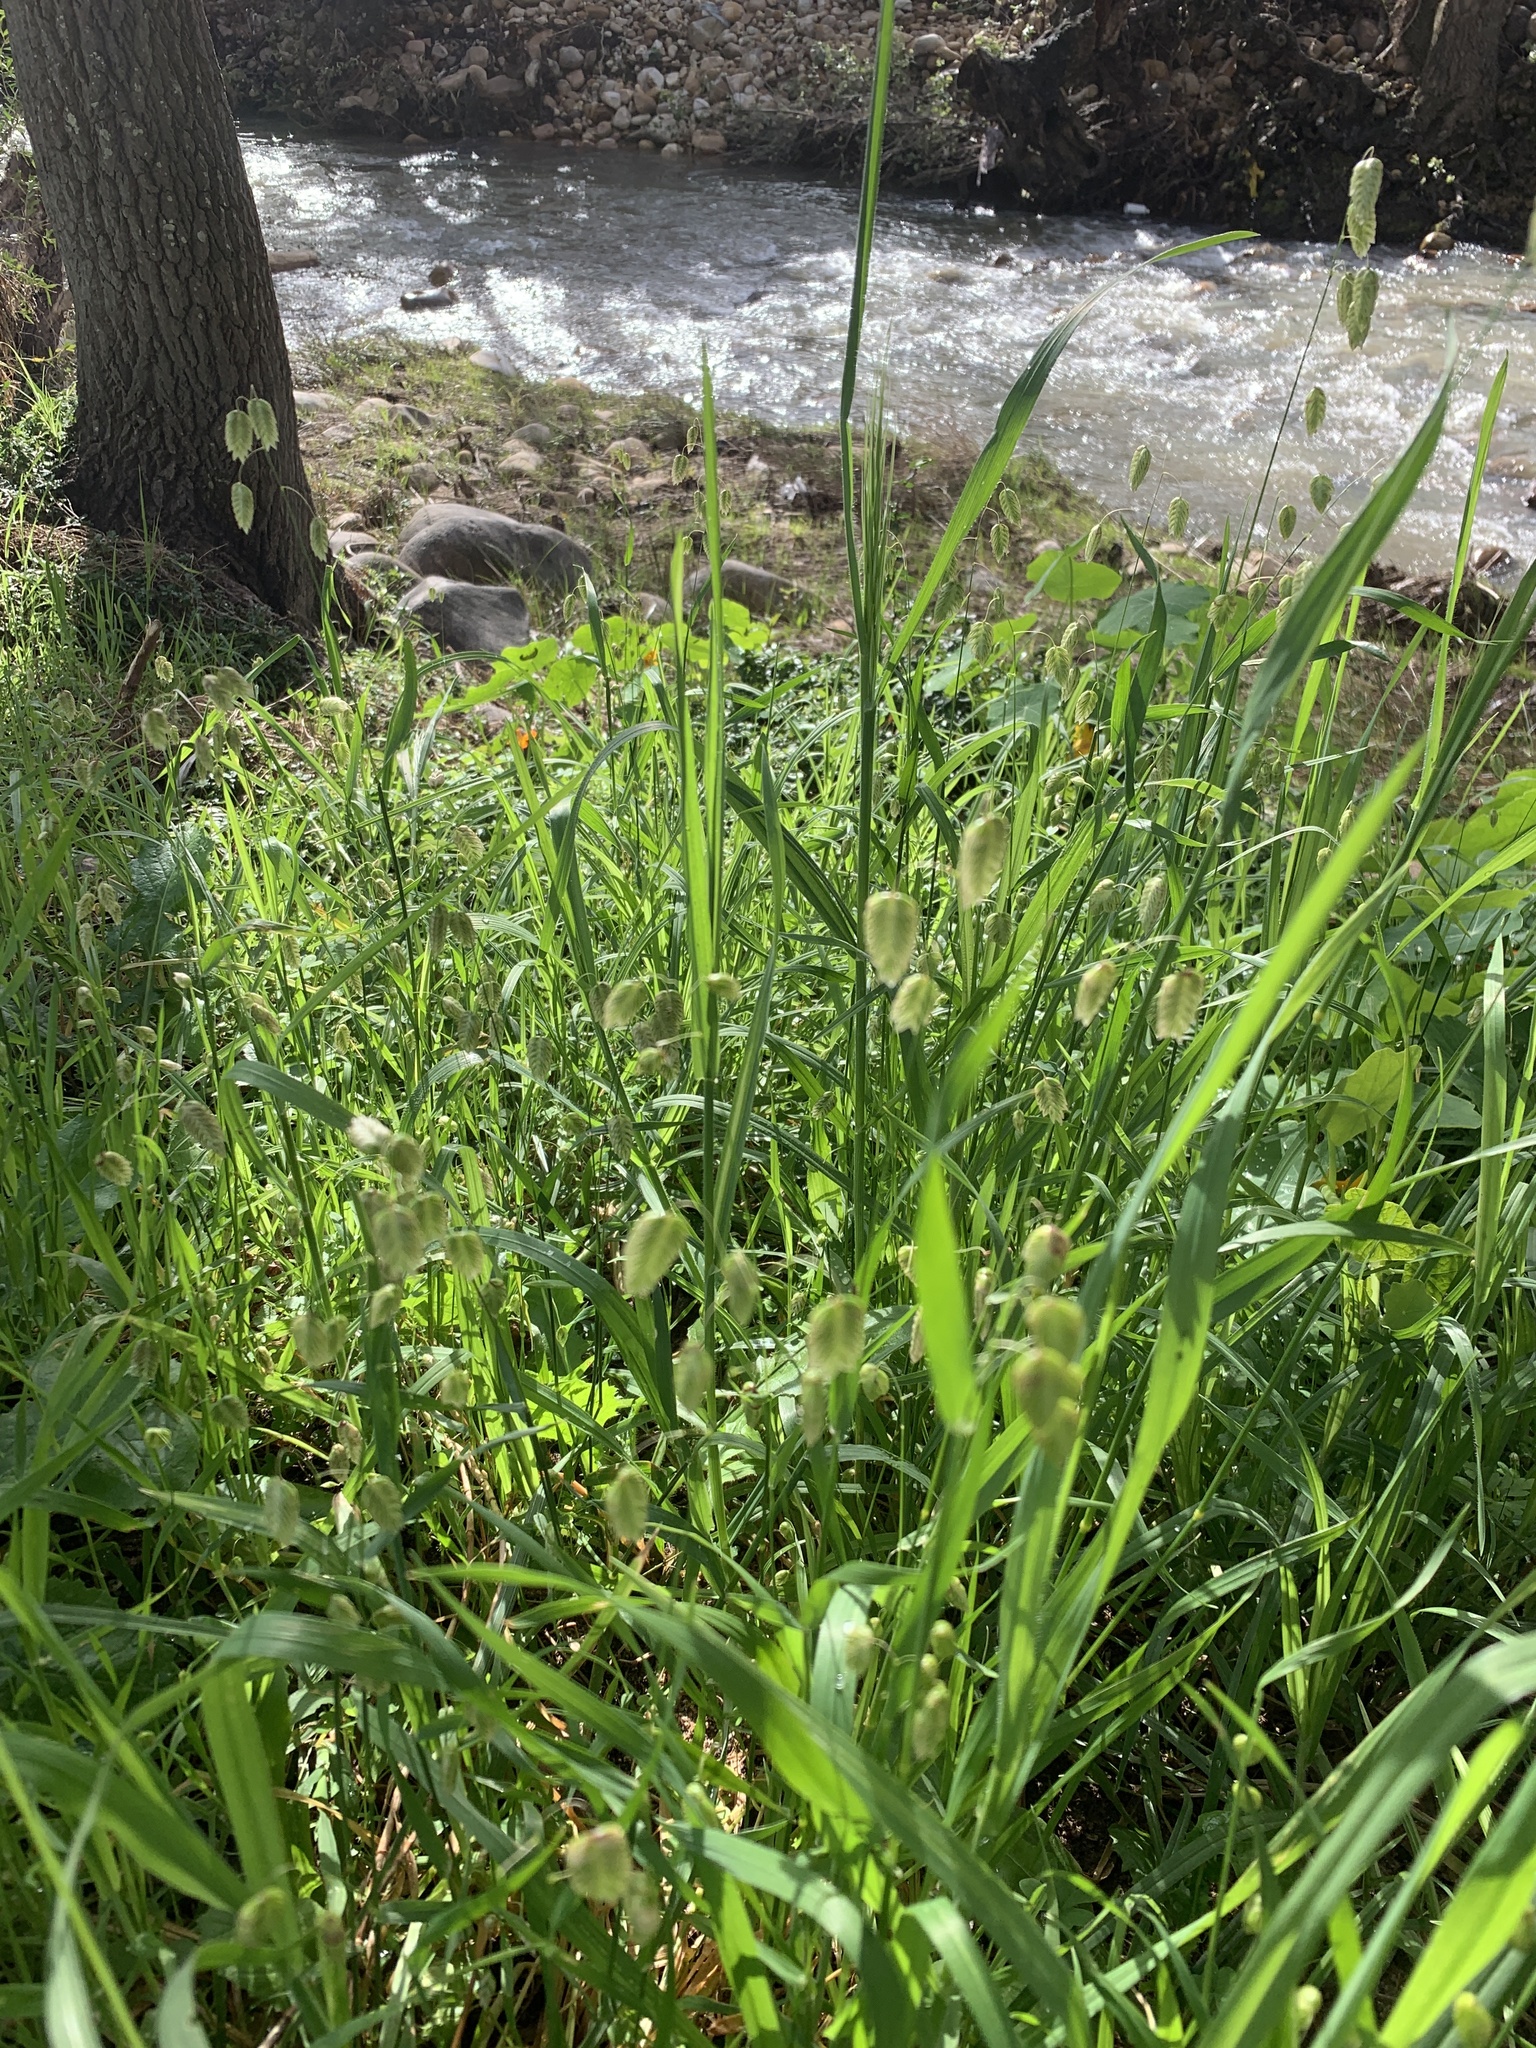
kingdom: Plantae
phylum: Tracheophyta
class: Liliopsida
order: Poales
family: Poaceae
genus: Briza
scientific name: Briza maxima
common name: Big quakinggrass
